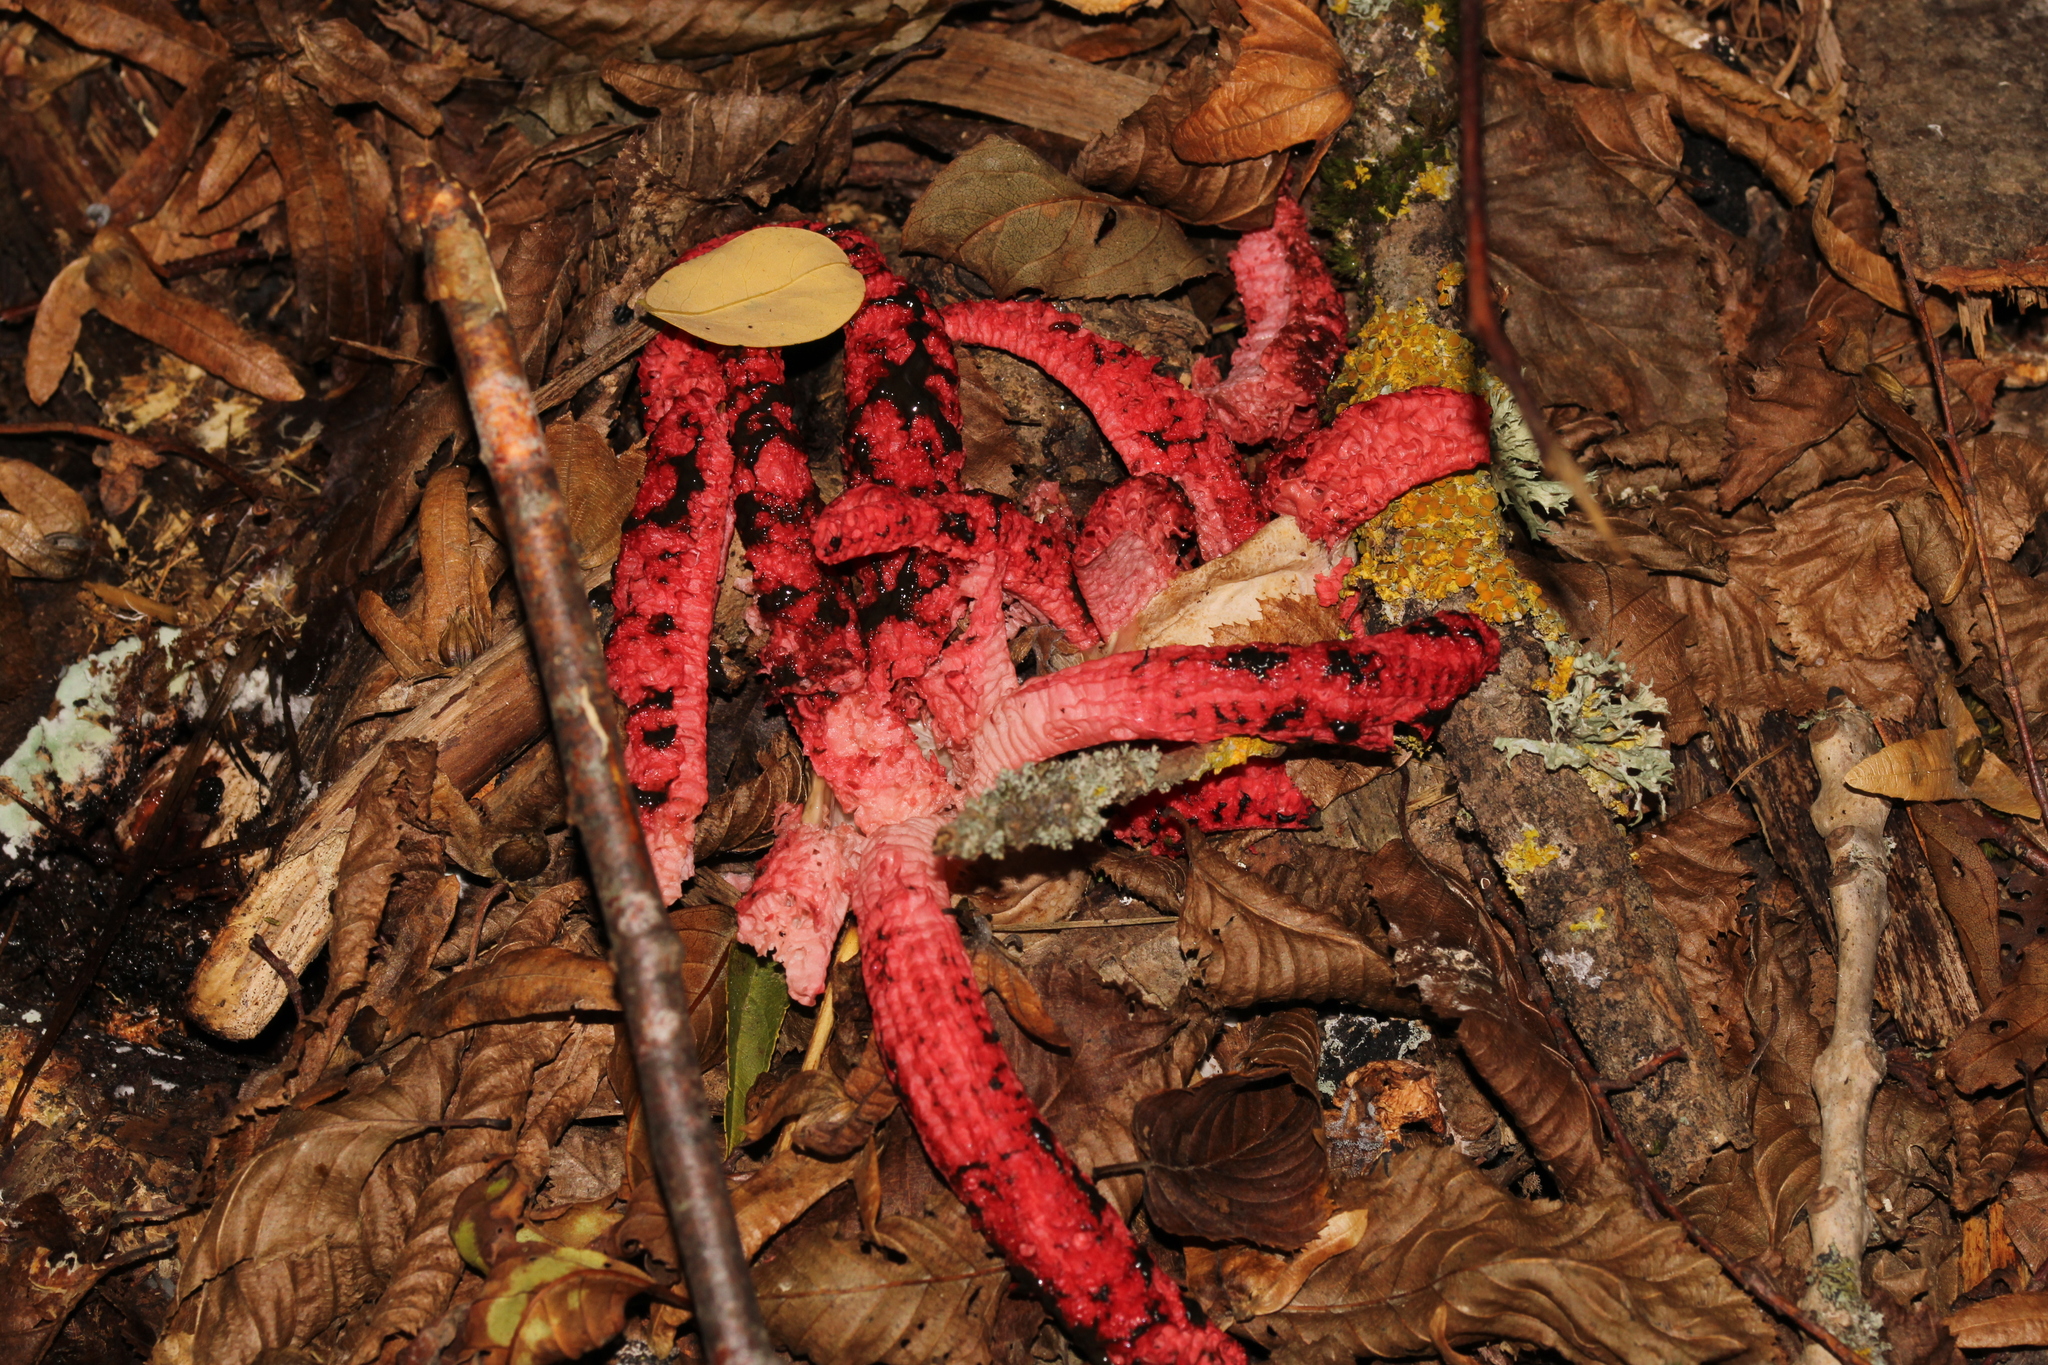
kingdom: Fungi
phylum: Basidiomycota
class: Agaricomycetes
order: Phallales
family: Phallaceae
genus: Clathrus
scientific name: Clathrus archeri
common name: Devil's fingers
